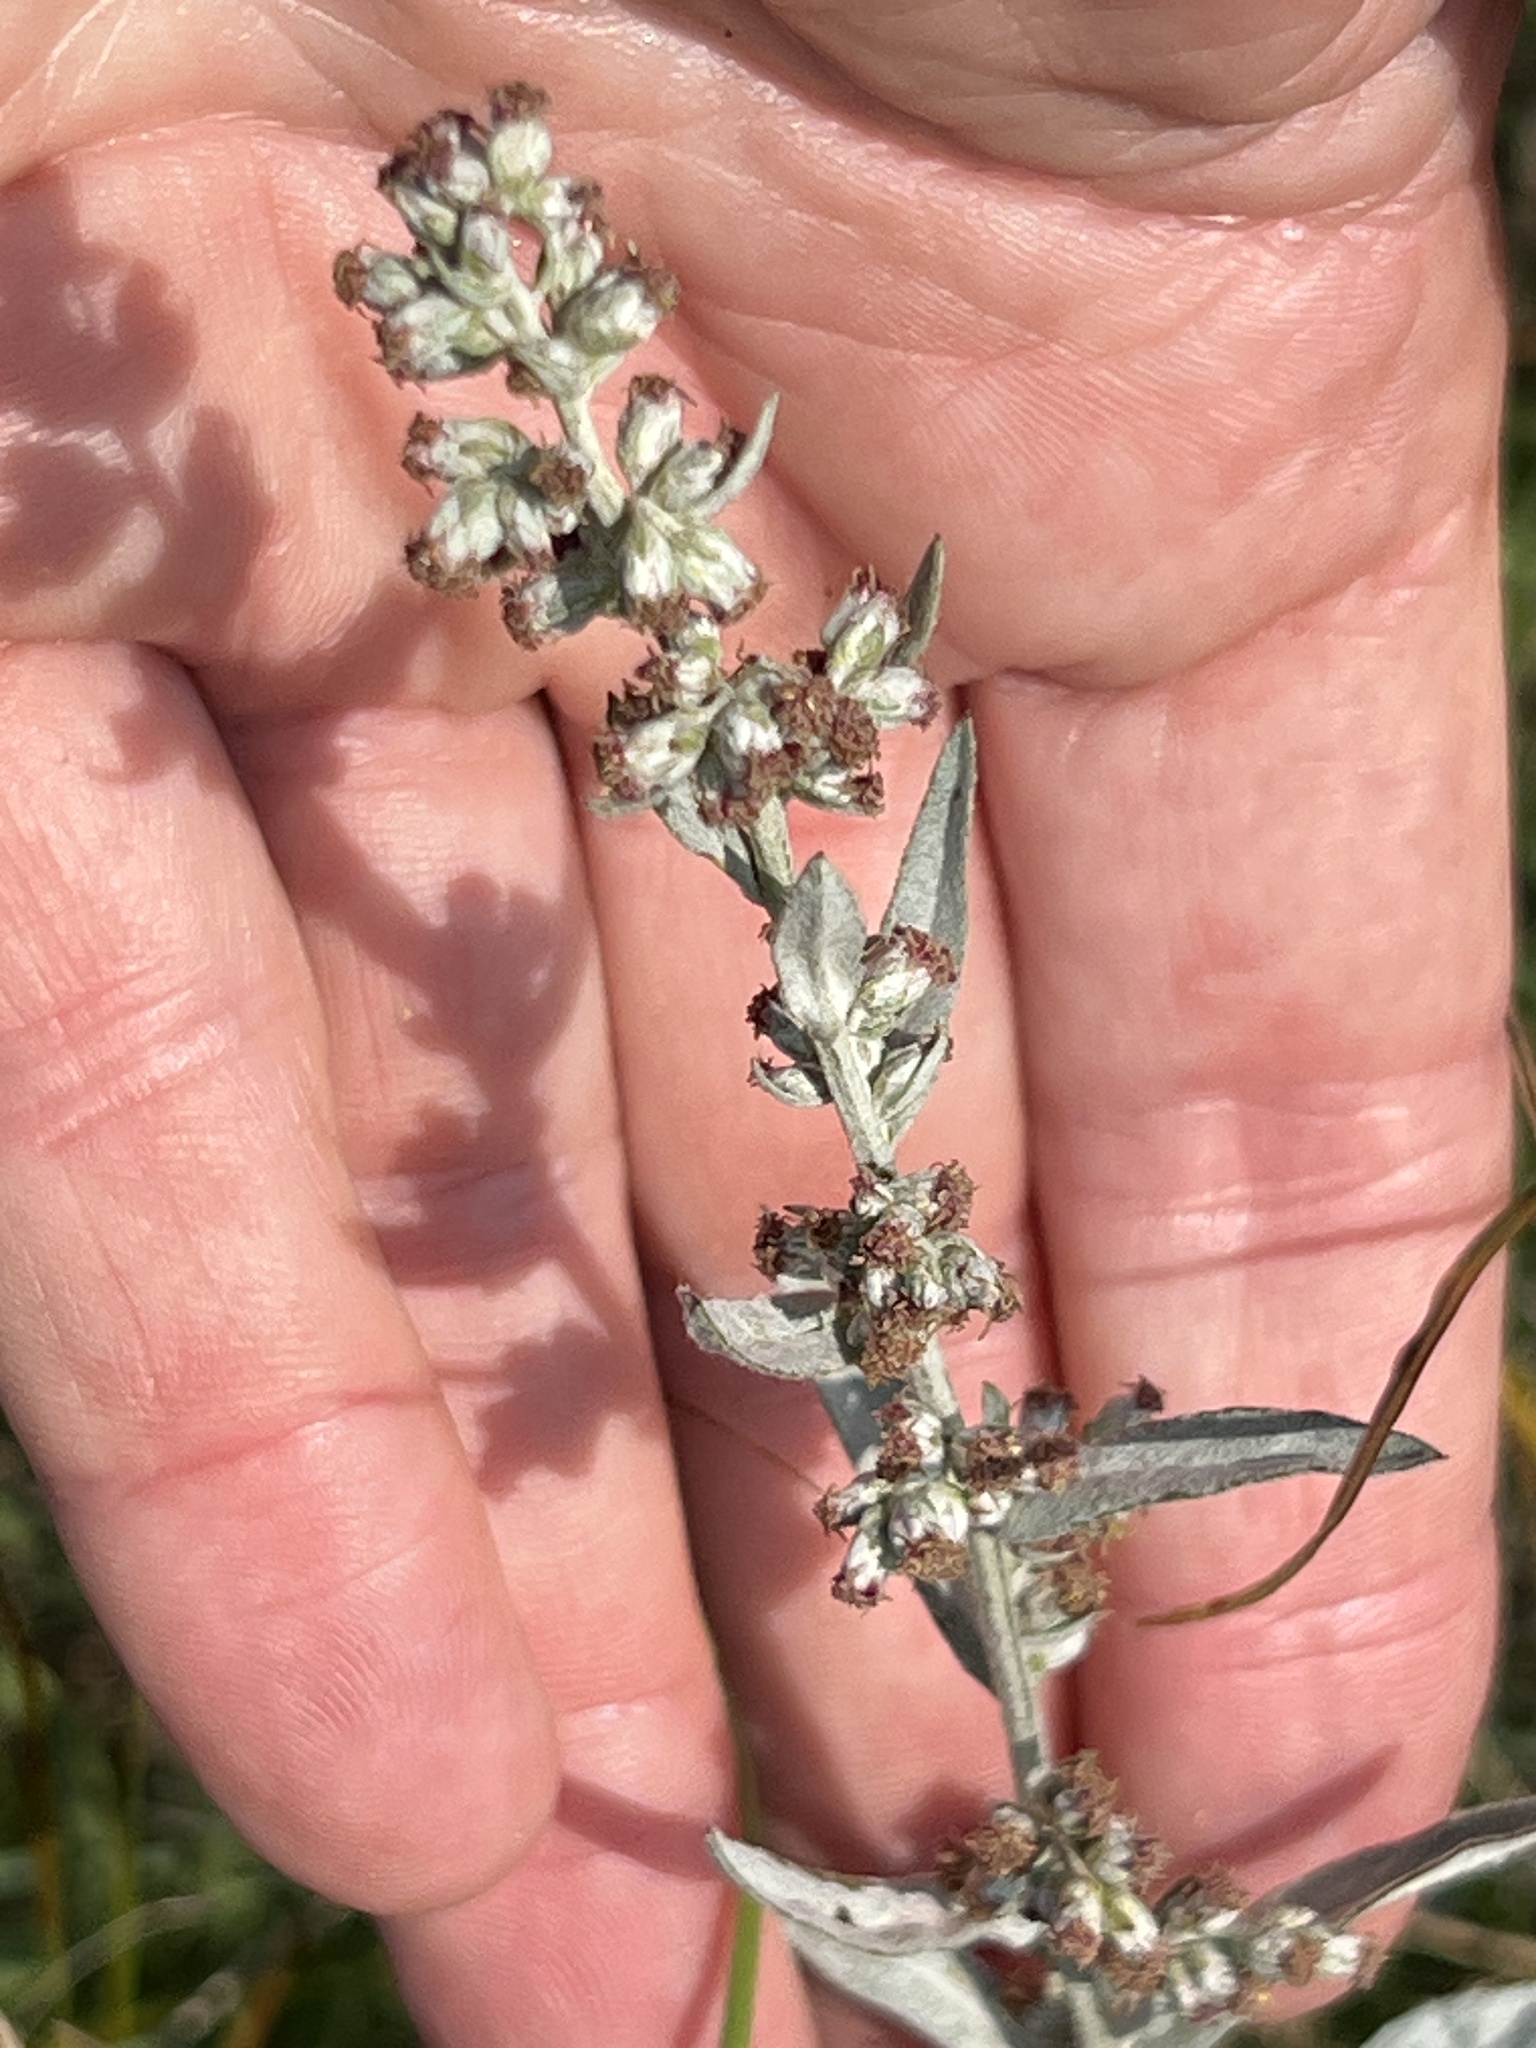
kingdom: Plantae
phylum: Tracheophyta
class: Magnoliopsida
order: Asterales
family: Asteraceae
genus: Artemisia
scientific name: Artemisia ludoviciana
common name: Western mugwort
